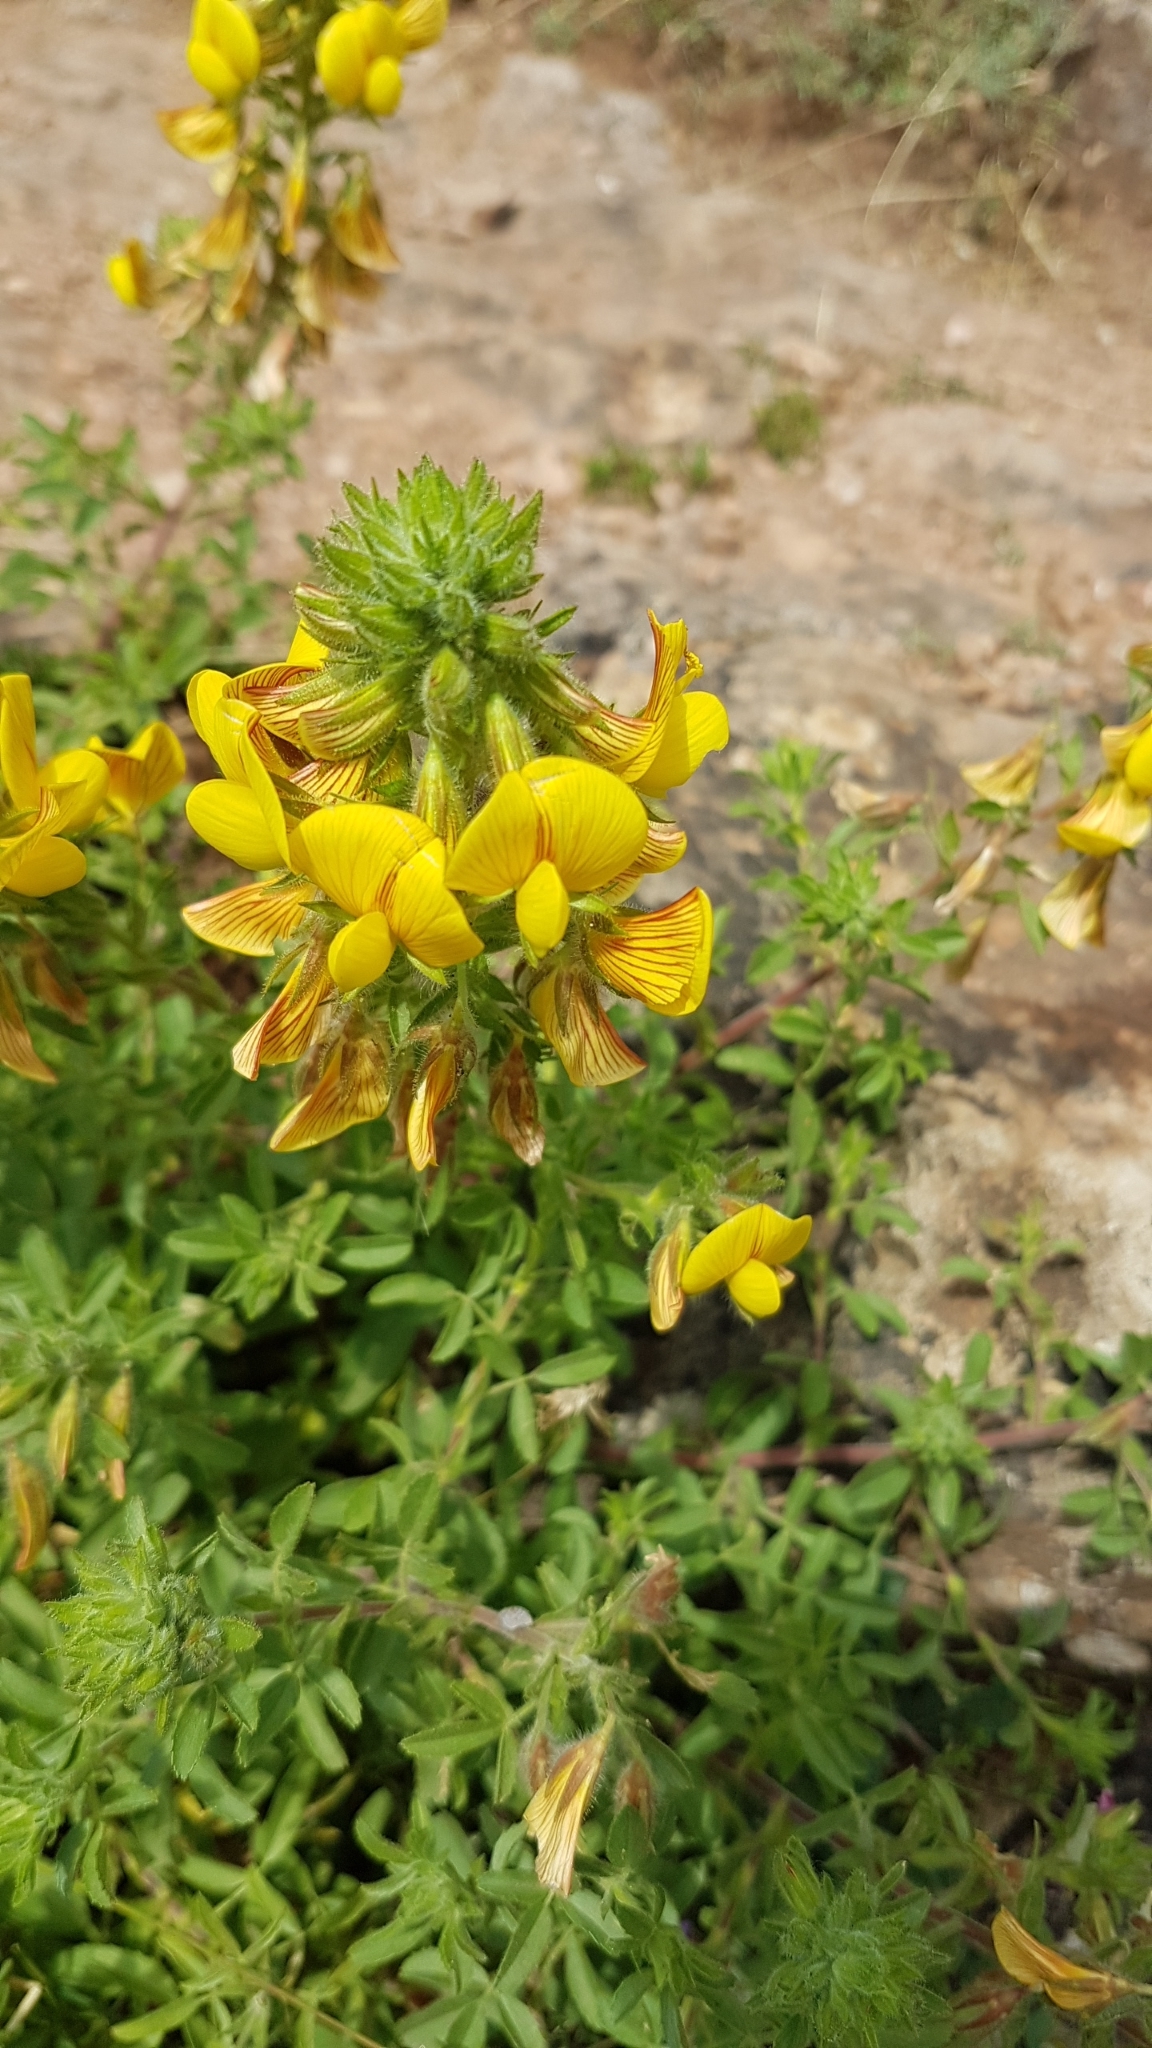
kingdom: Plantae
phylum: Tracheophyta
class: Magnoliopsida
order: Fabales
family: Fabaceae
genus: Ononis
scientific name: Ononis natrix
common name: Yellow restharrow
